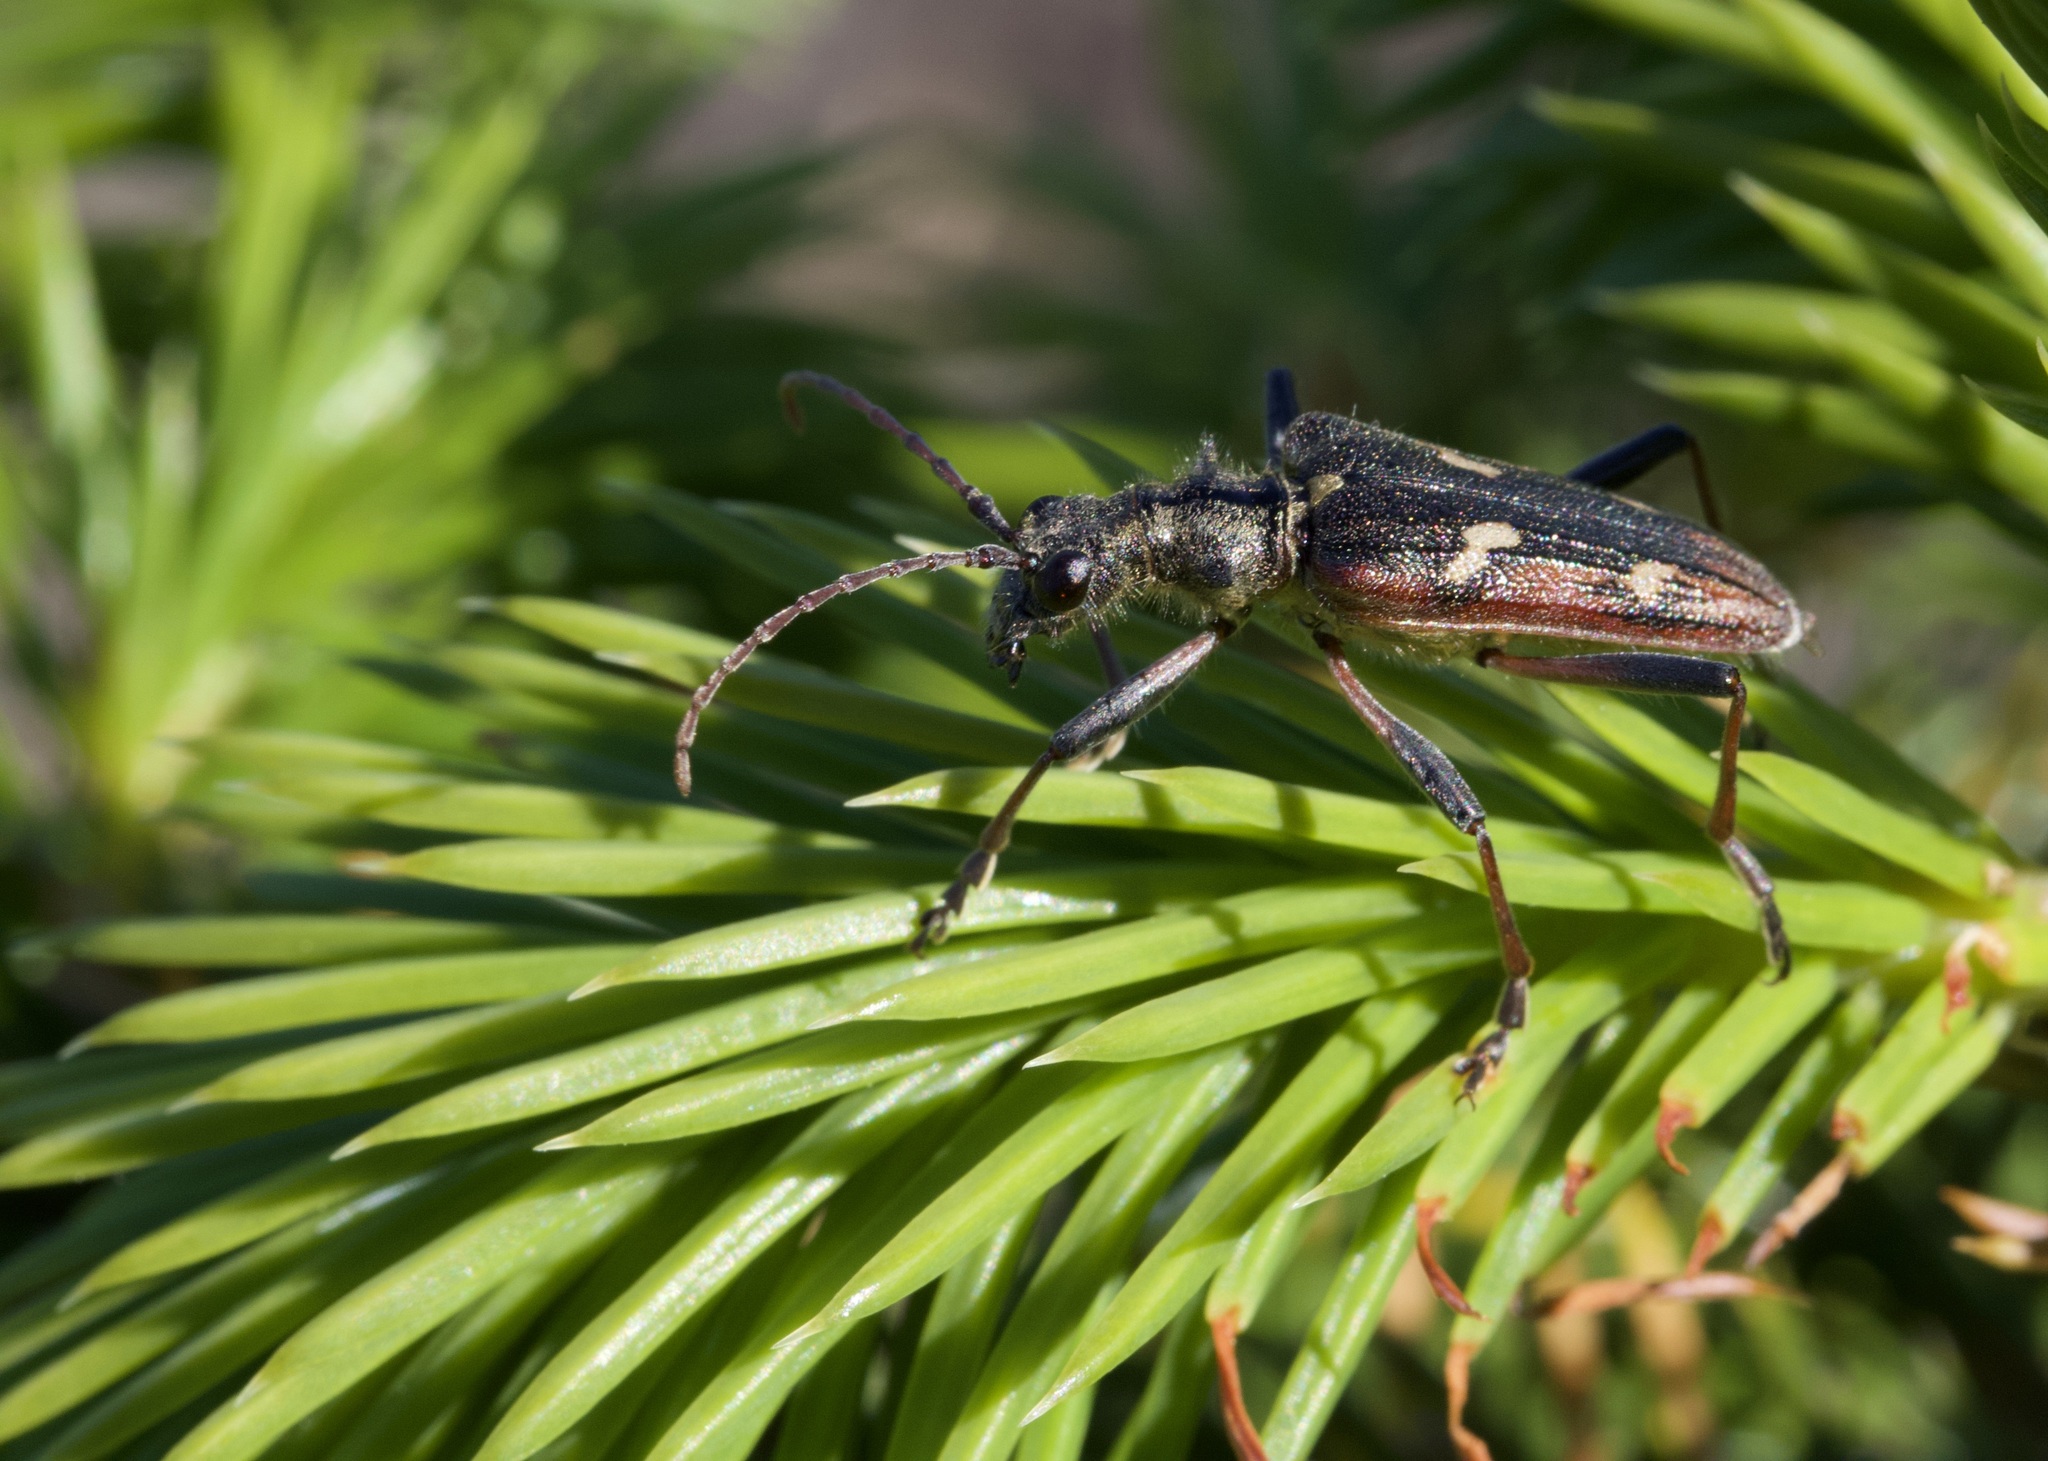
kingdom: Animalia
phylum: Arthropoda
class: Insecta
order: Coleoptera
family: Cerambycidae
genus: Rhagium
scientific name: Rhagium bifasciatum
